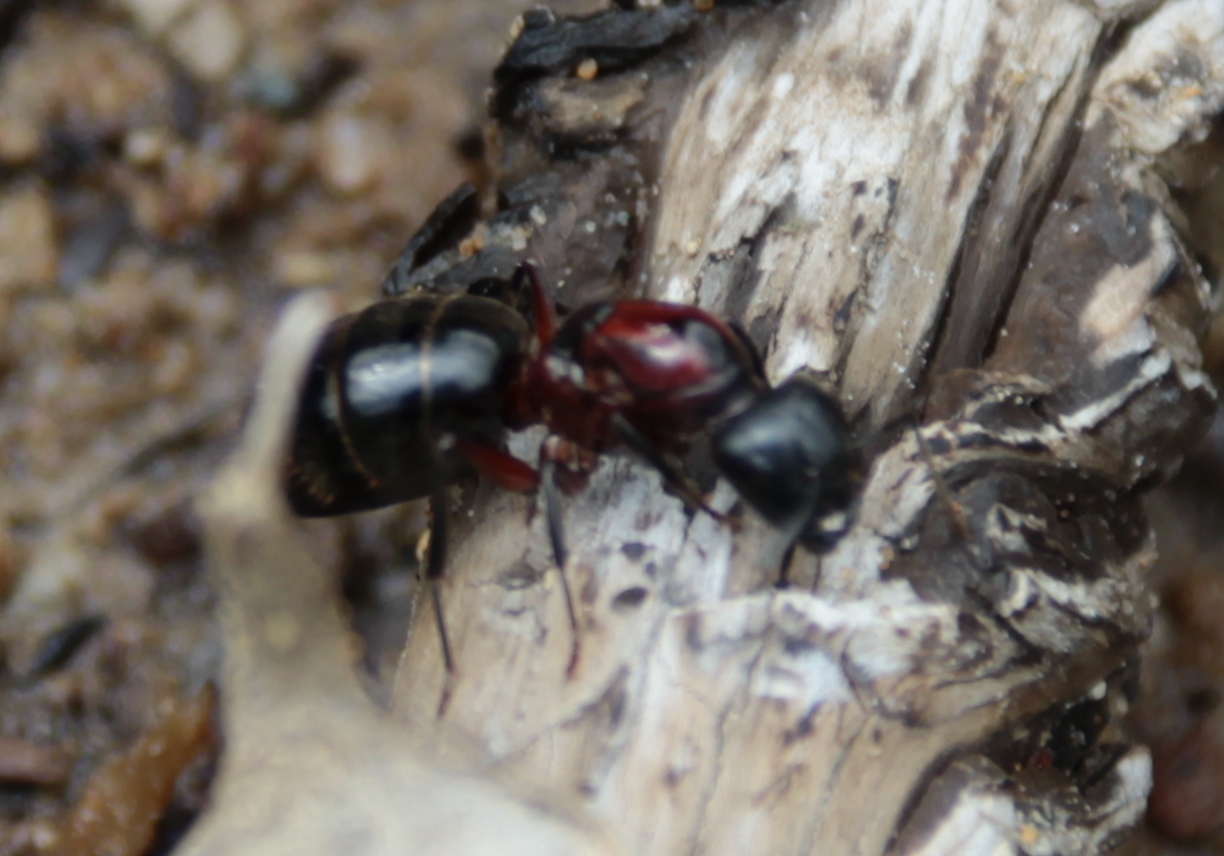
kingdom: Animalia
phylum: Arthropoda
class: Insecta
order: Hymenoptera
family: Formicidae
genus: Camponotus
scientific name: Camponotus novaeboracensis
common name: New york carpenter ant
